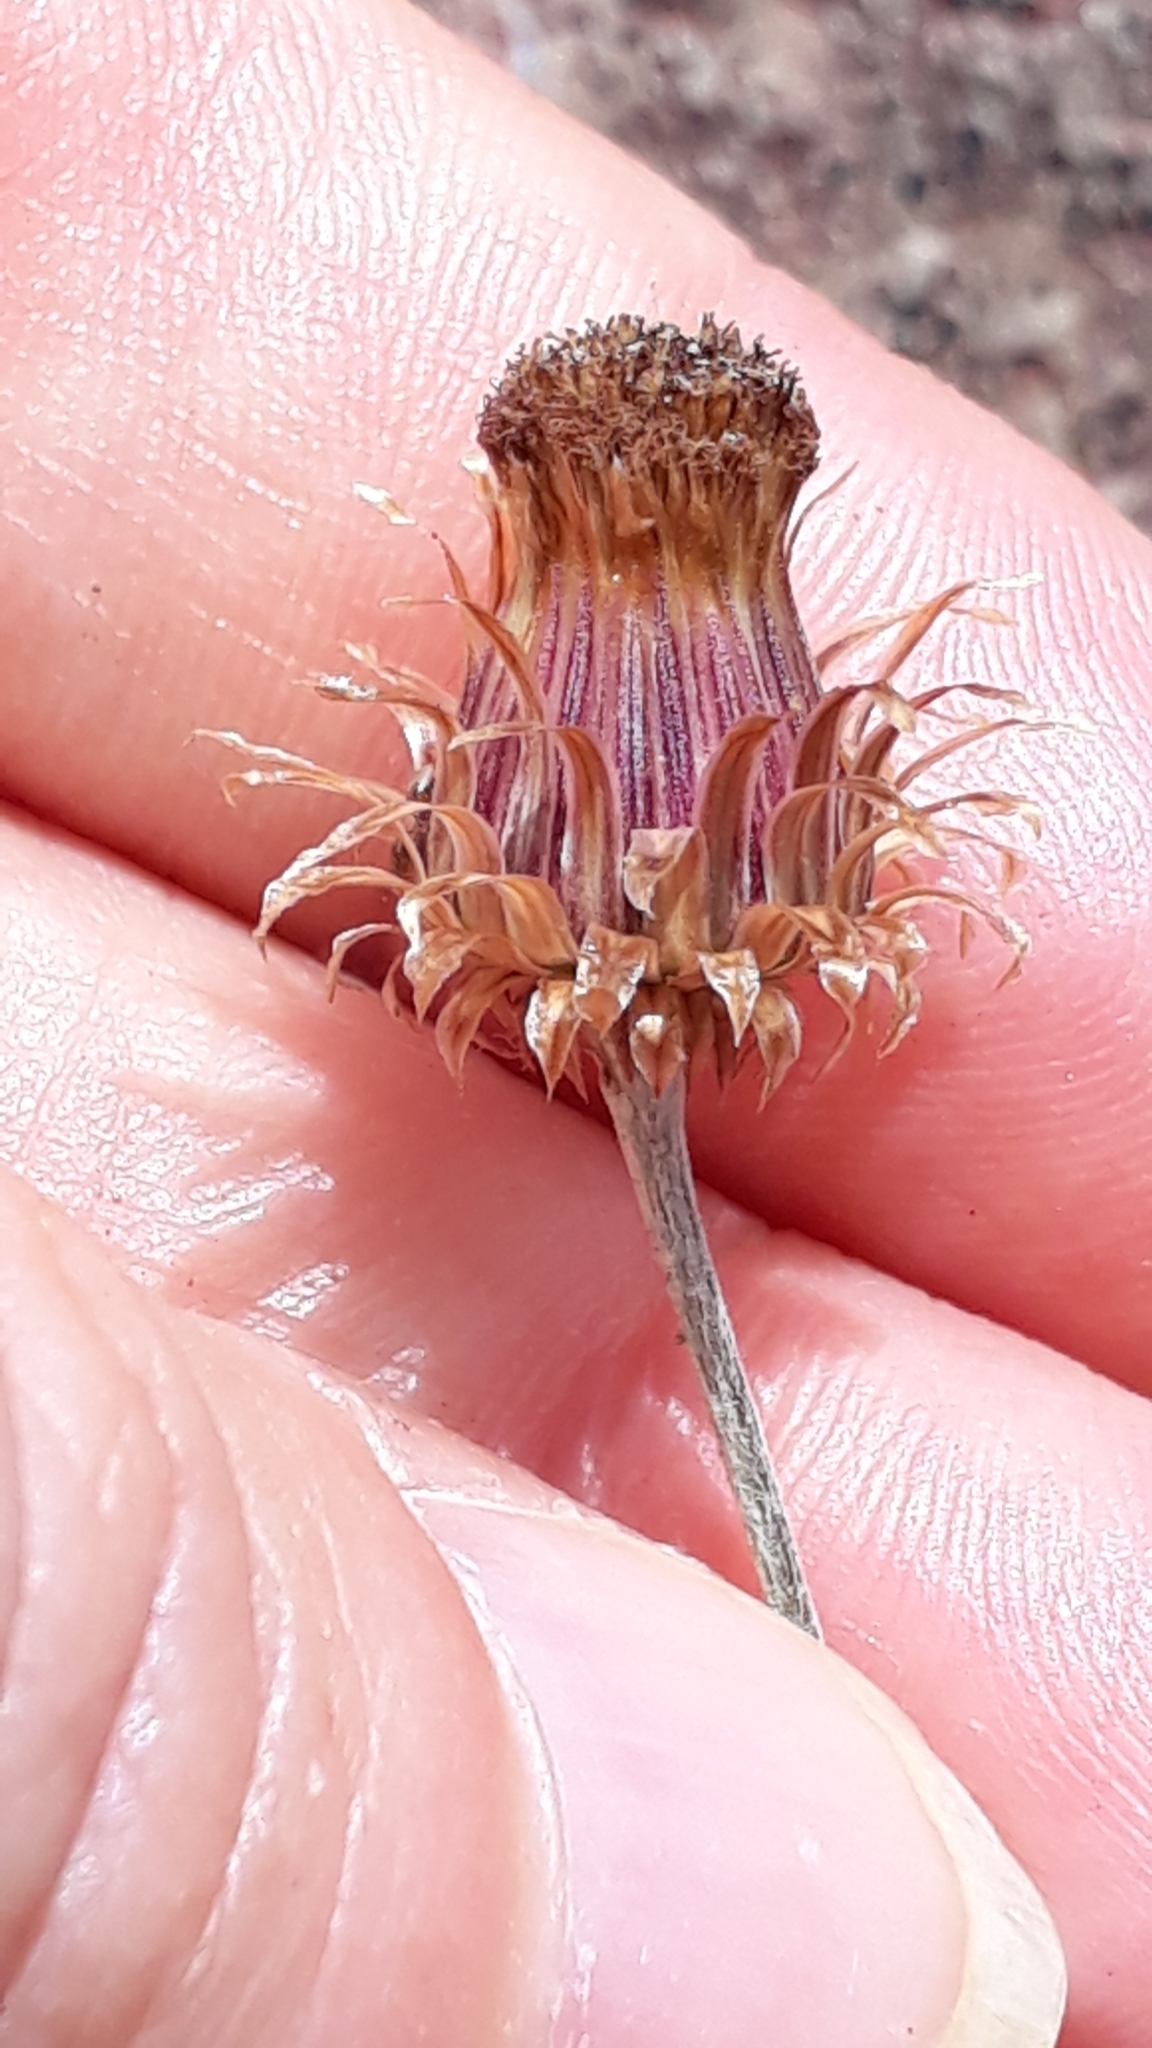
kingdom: Plantae
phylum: Tracheophyta
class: Magnoliopsida
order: Asterales
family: Asteraceae
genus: Phagnalon
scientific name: Phagnalon saxatile
